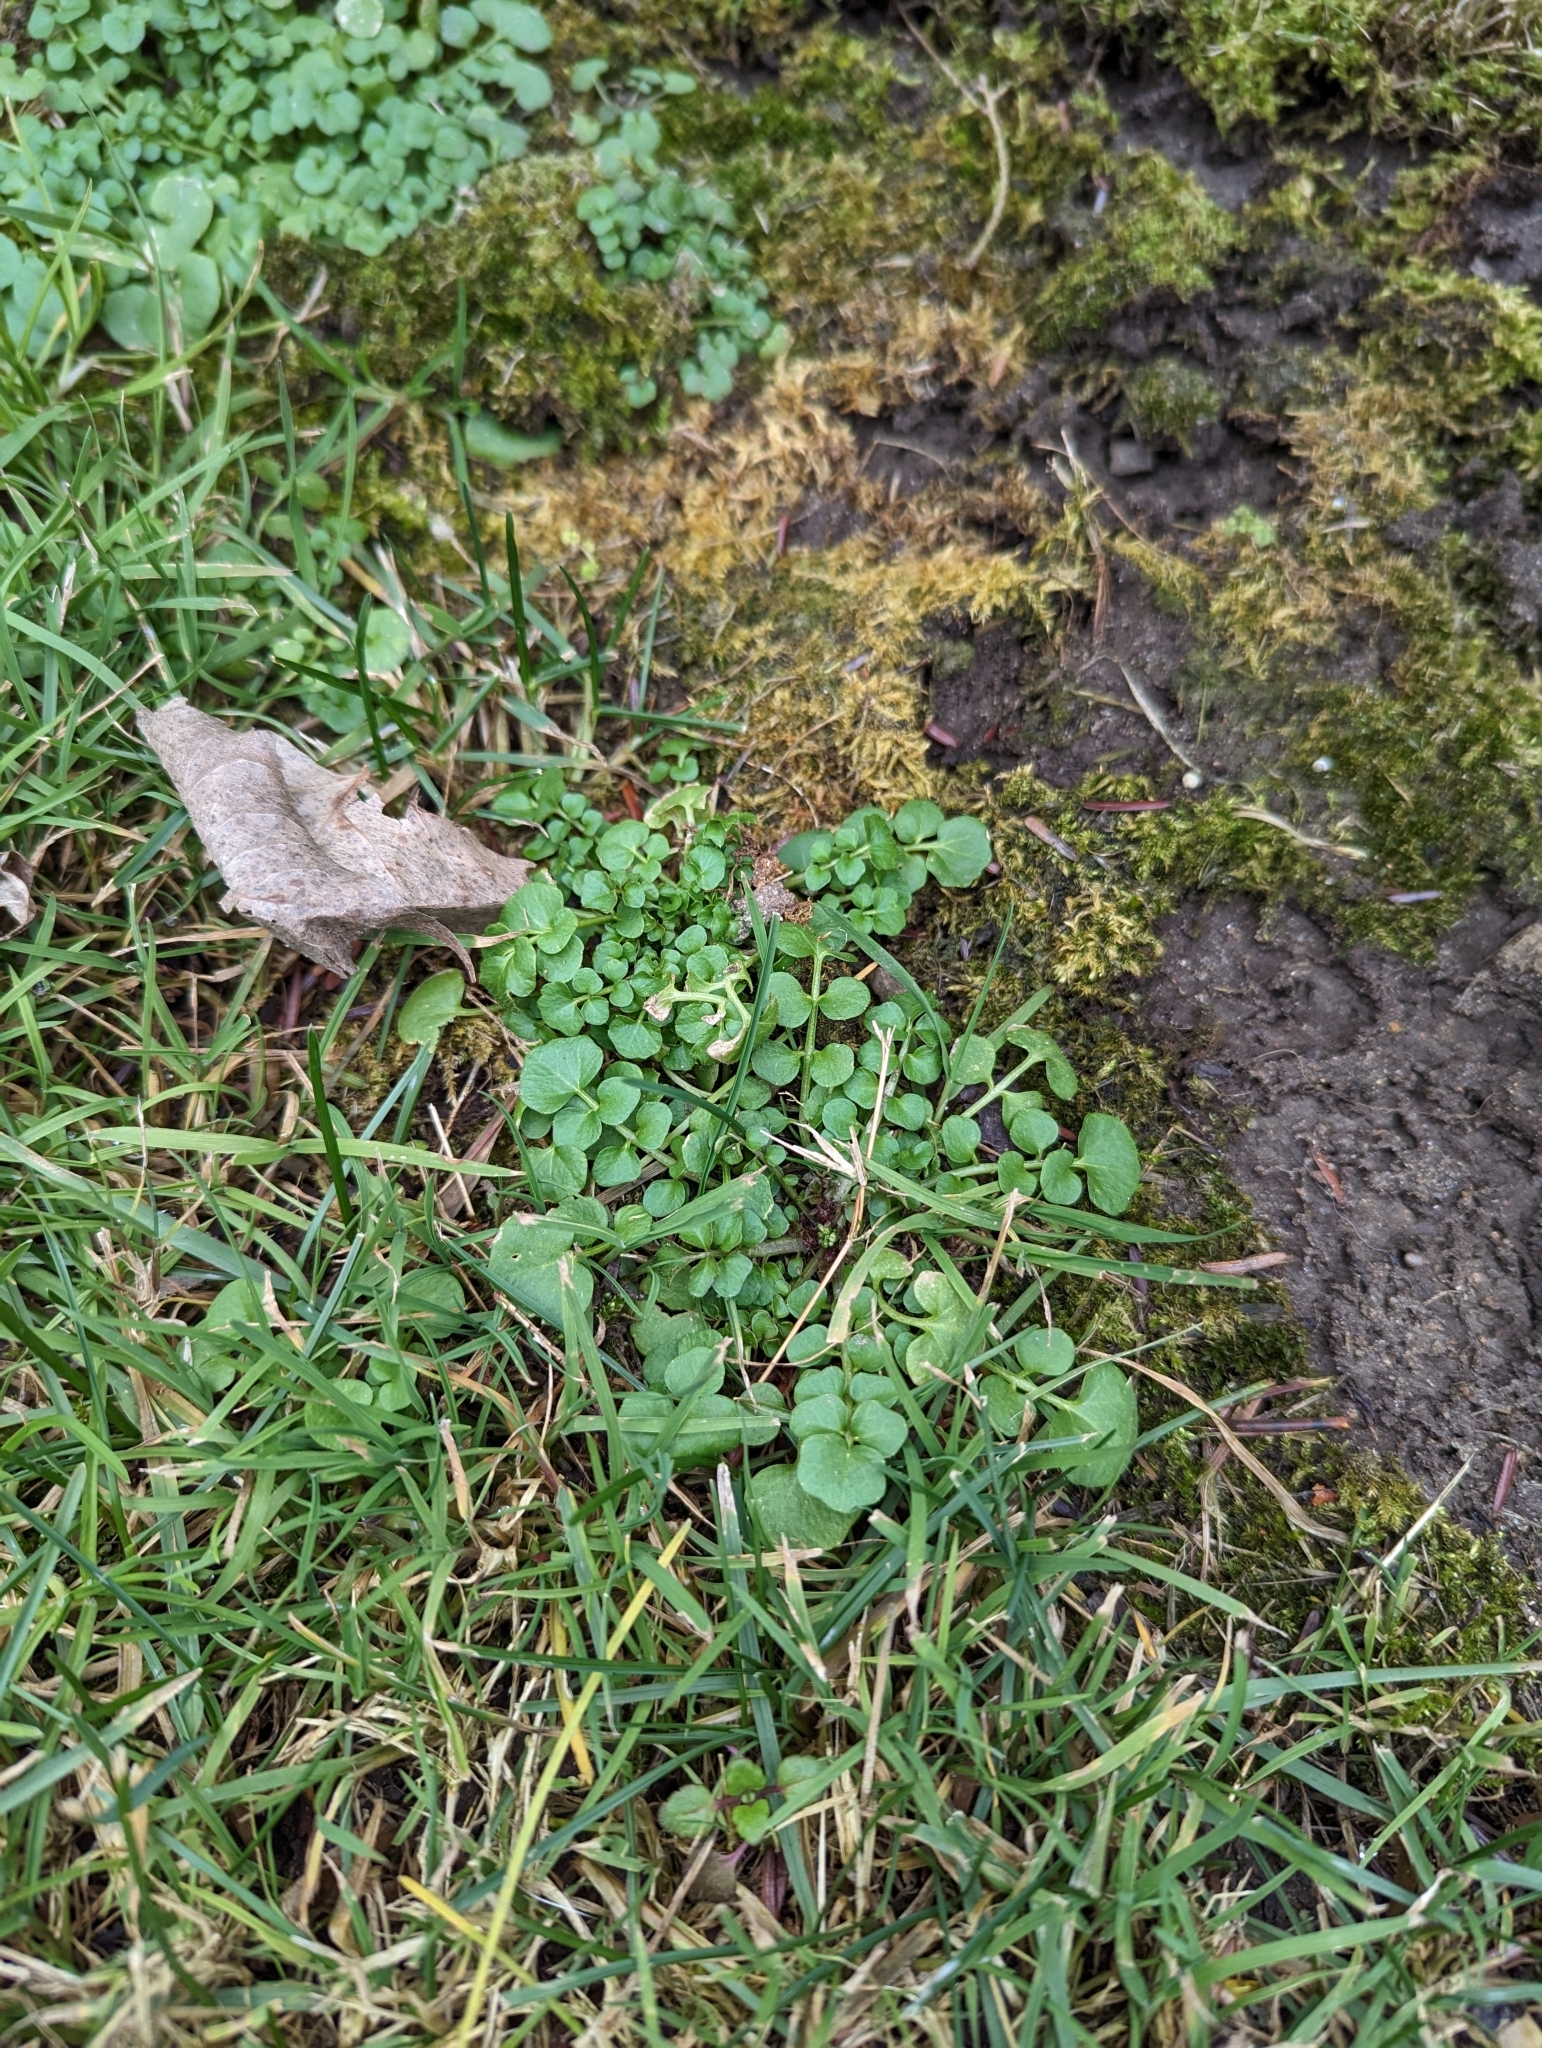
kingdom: Plantae
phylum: Tracheophyta
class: Magnoliopsida
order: Brassicales
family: Brassicaceae
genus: Cardamine
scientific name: Cardamine hirsuta
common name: Hairy bittercress
